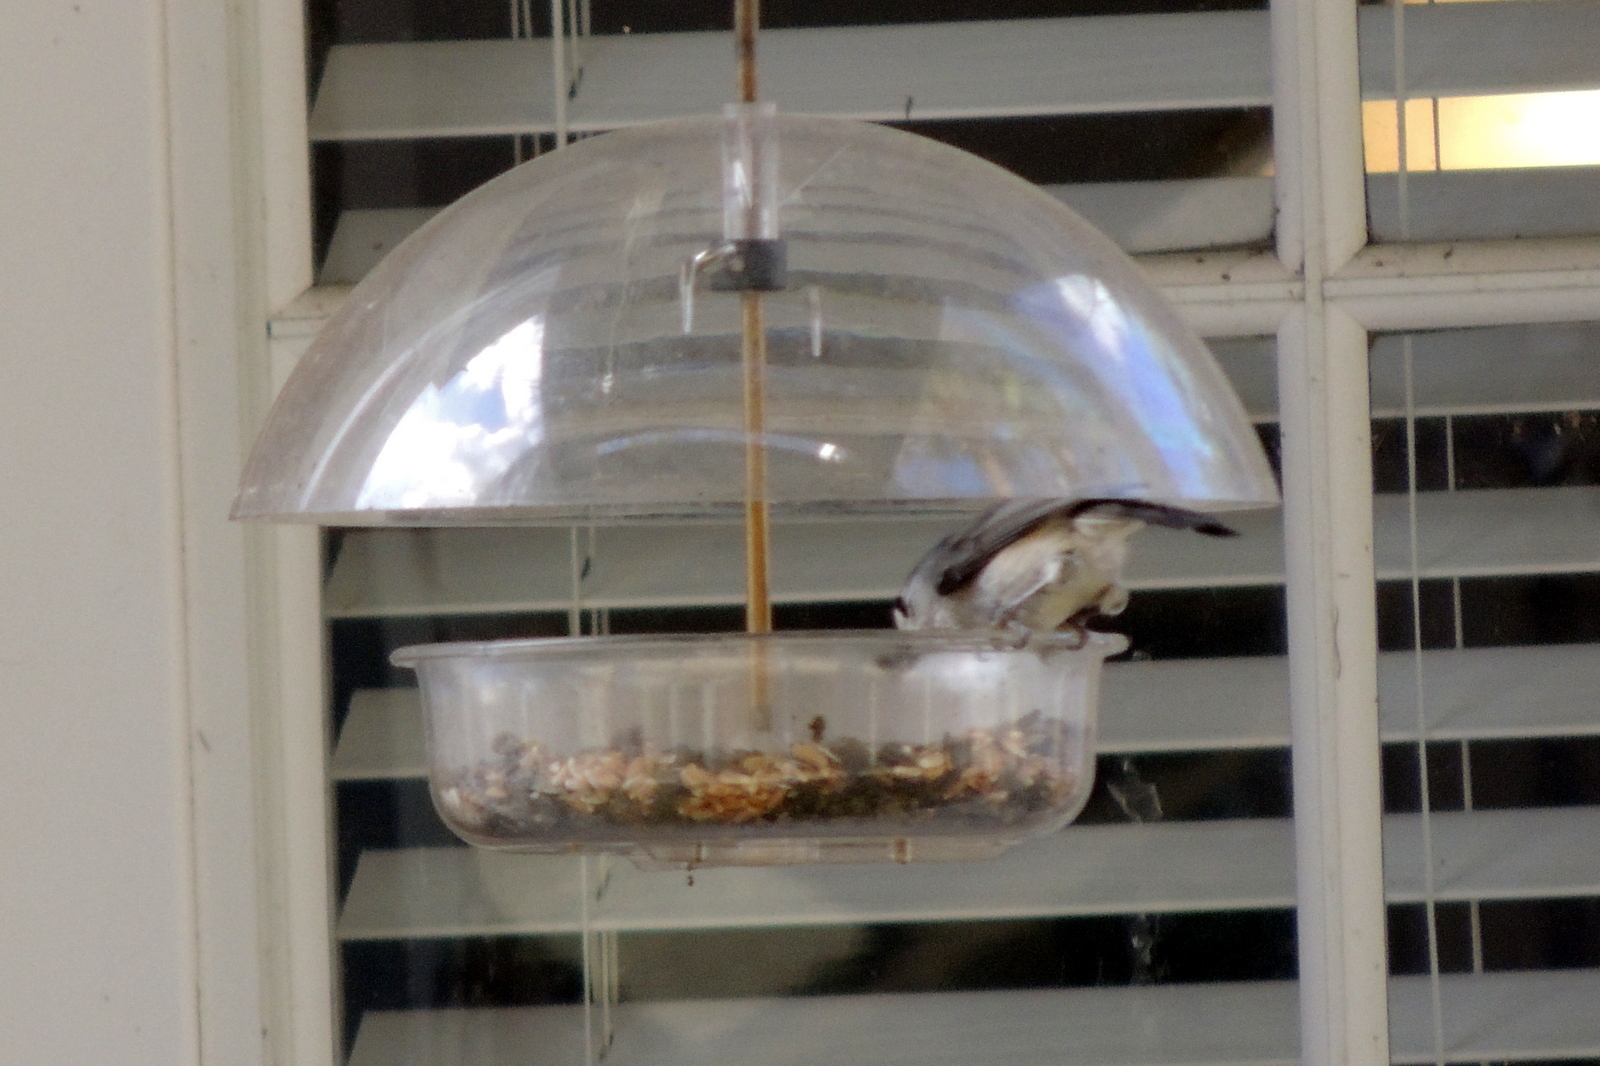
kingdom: Animalia
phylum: Chordata
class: Aves
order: Passeriformes
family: Paridae
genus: Baeolophus
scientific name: Baeolophus bicolor
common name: Tufted titmouse
